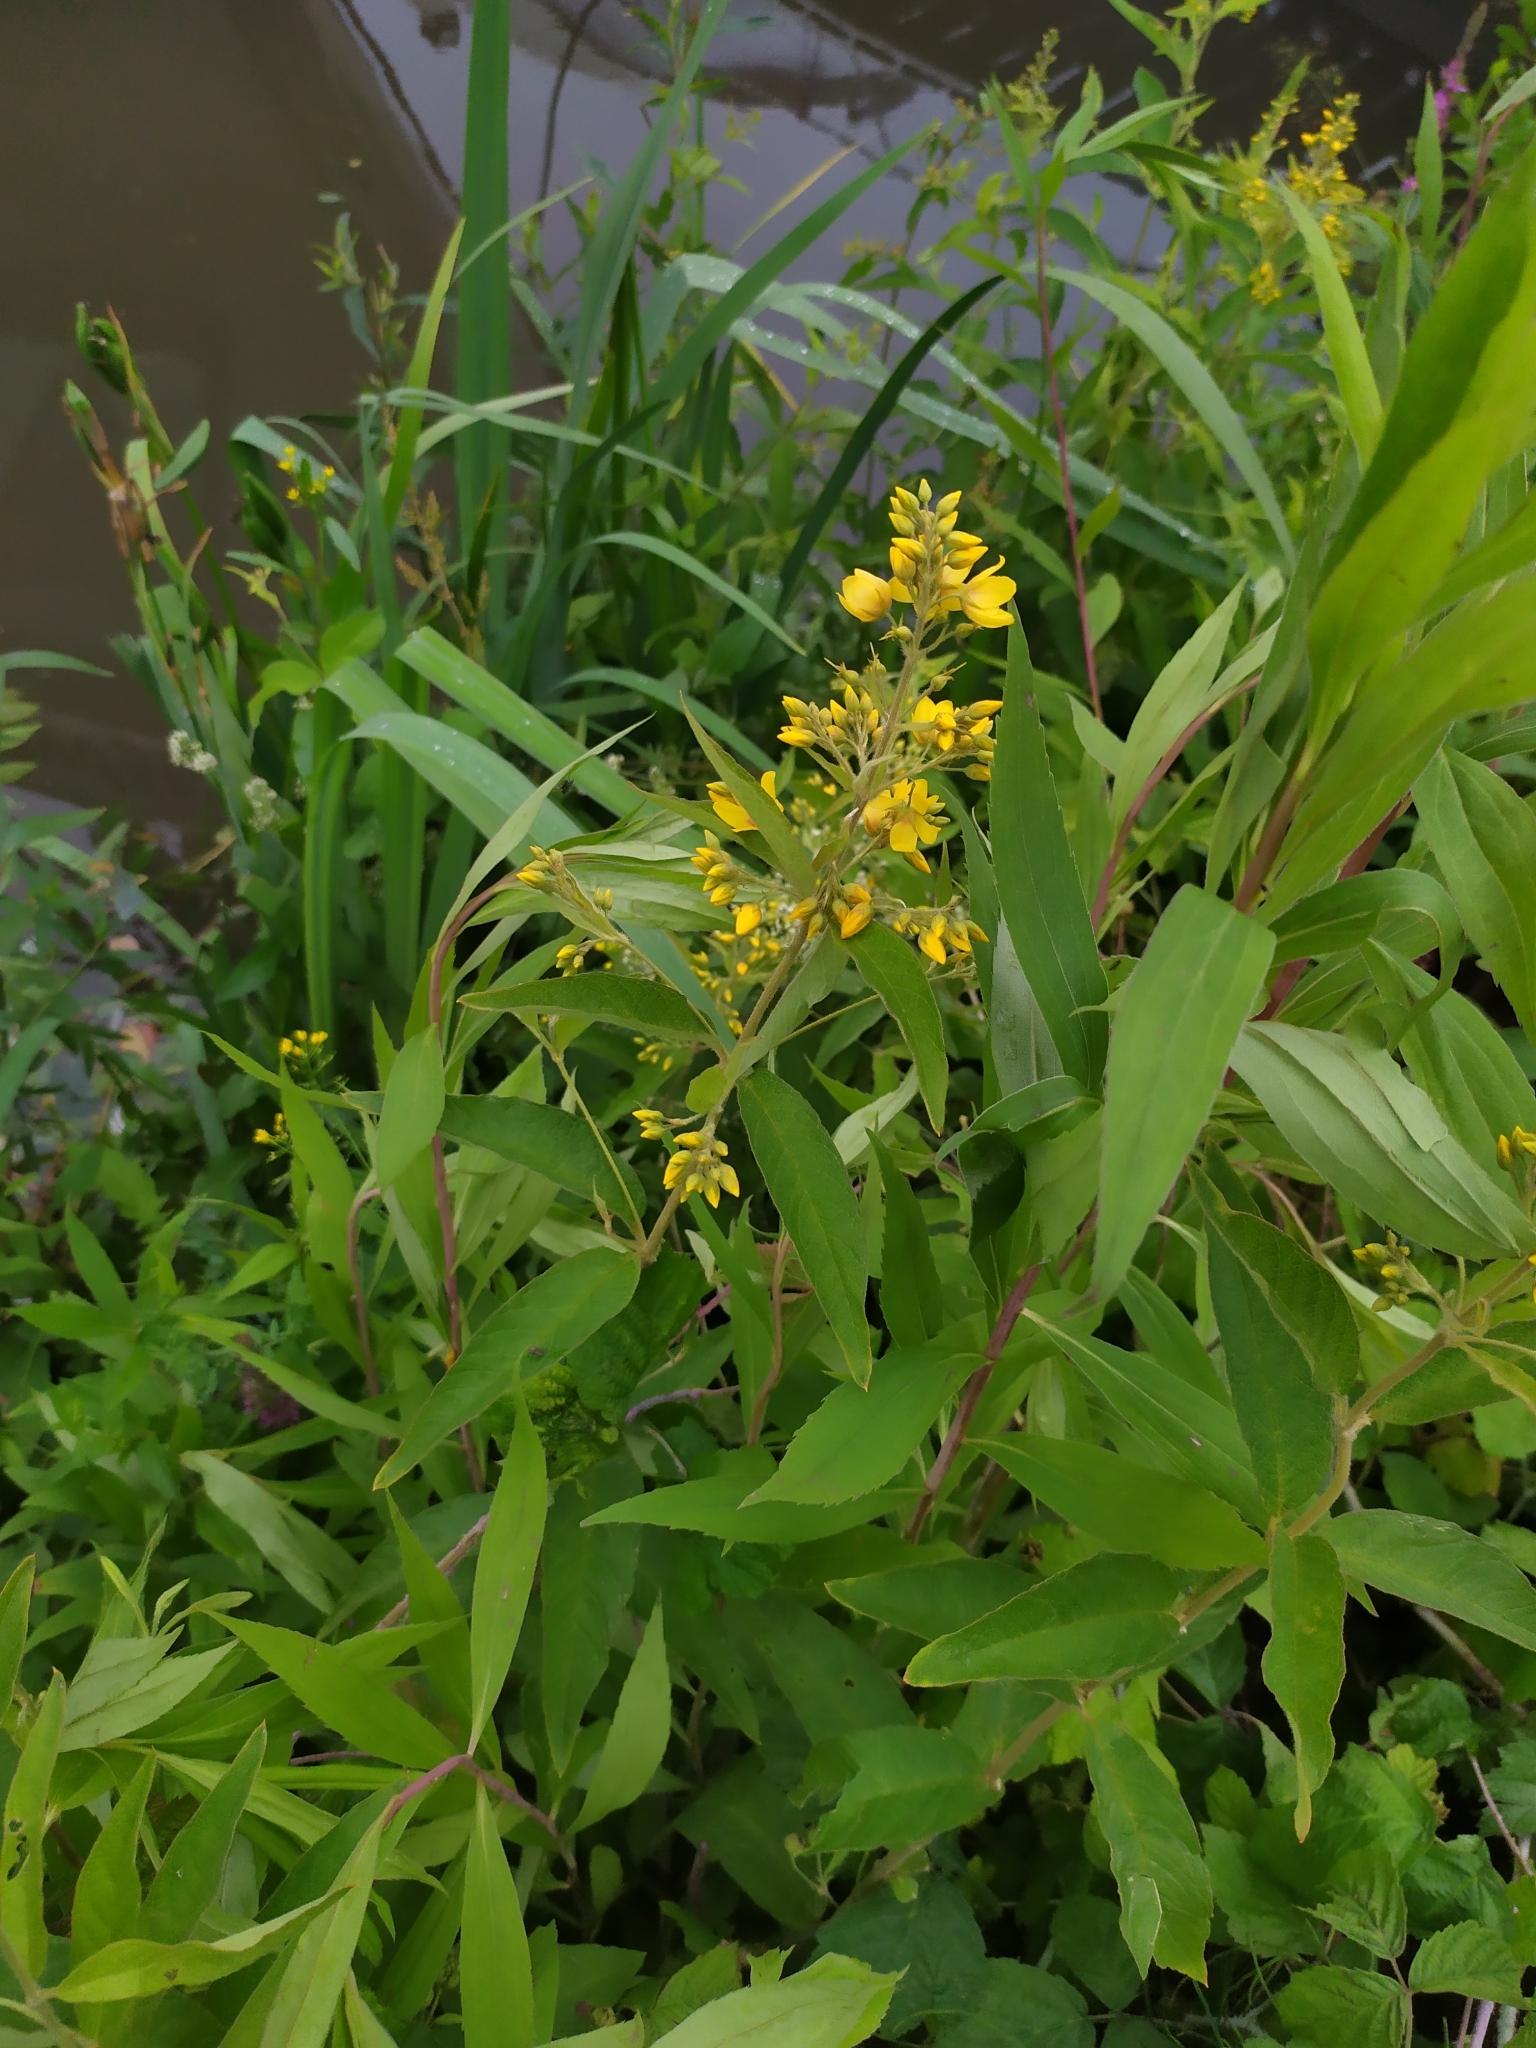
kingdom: Plantae
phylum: Tracheophyta
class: Magnoliopsida
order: Ericales
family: Primulaceae
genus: Lysimachia
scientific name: Lysimachia vulgaris
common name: Yellow loosestrife
